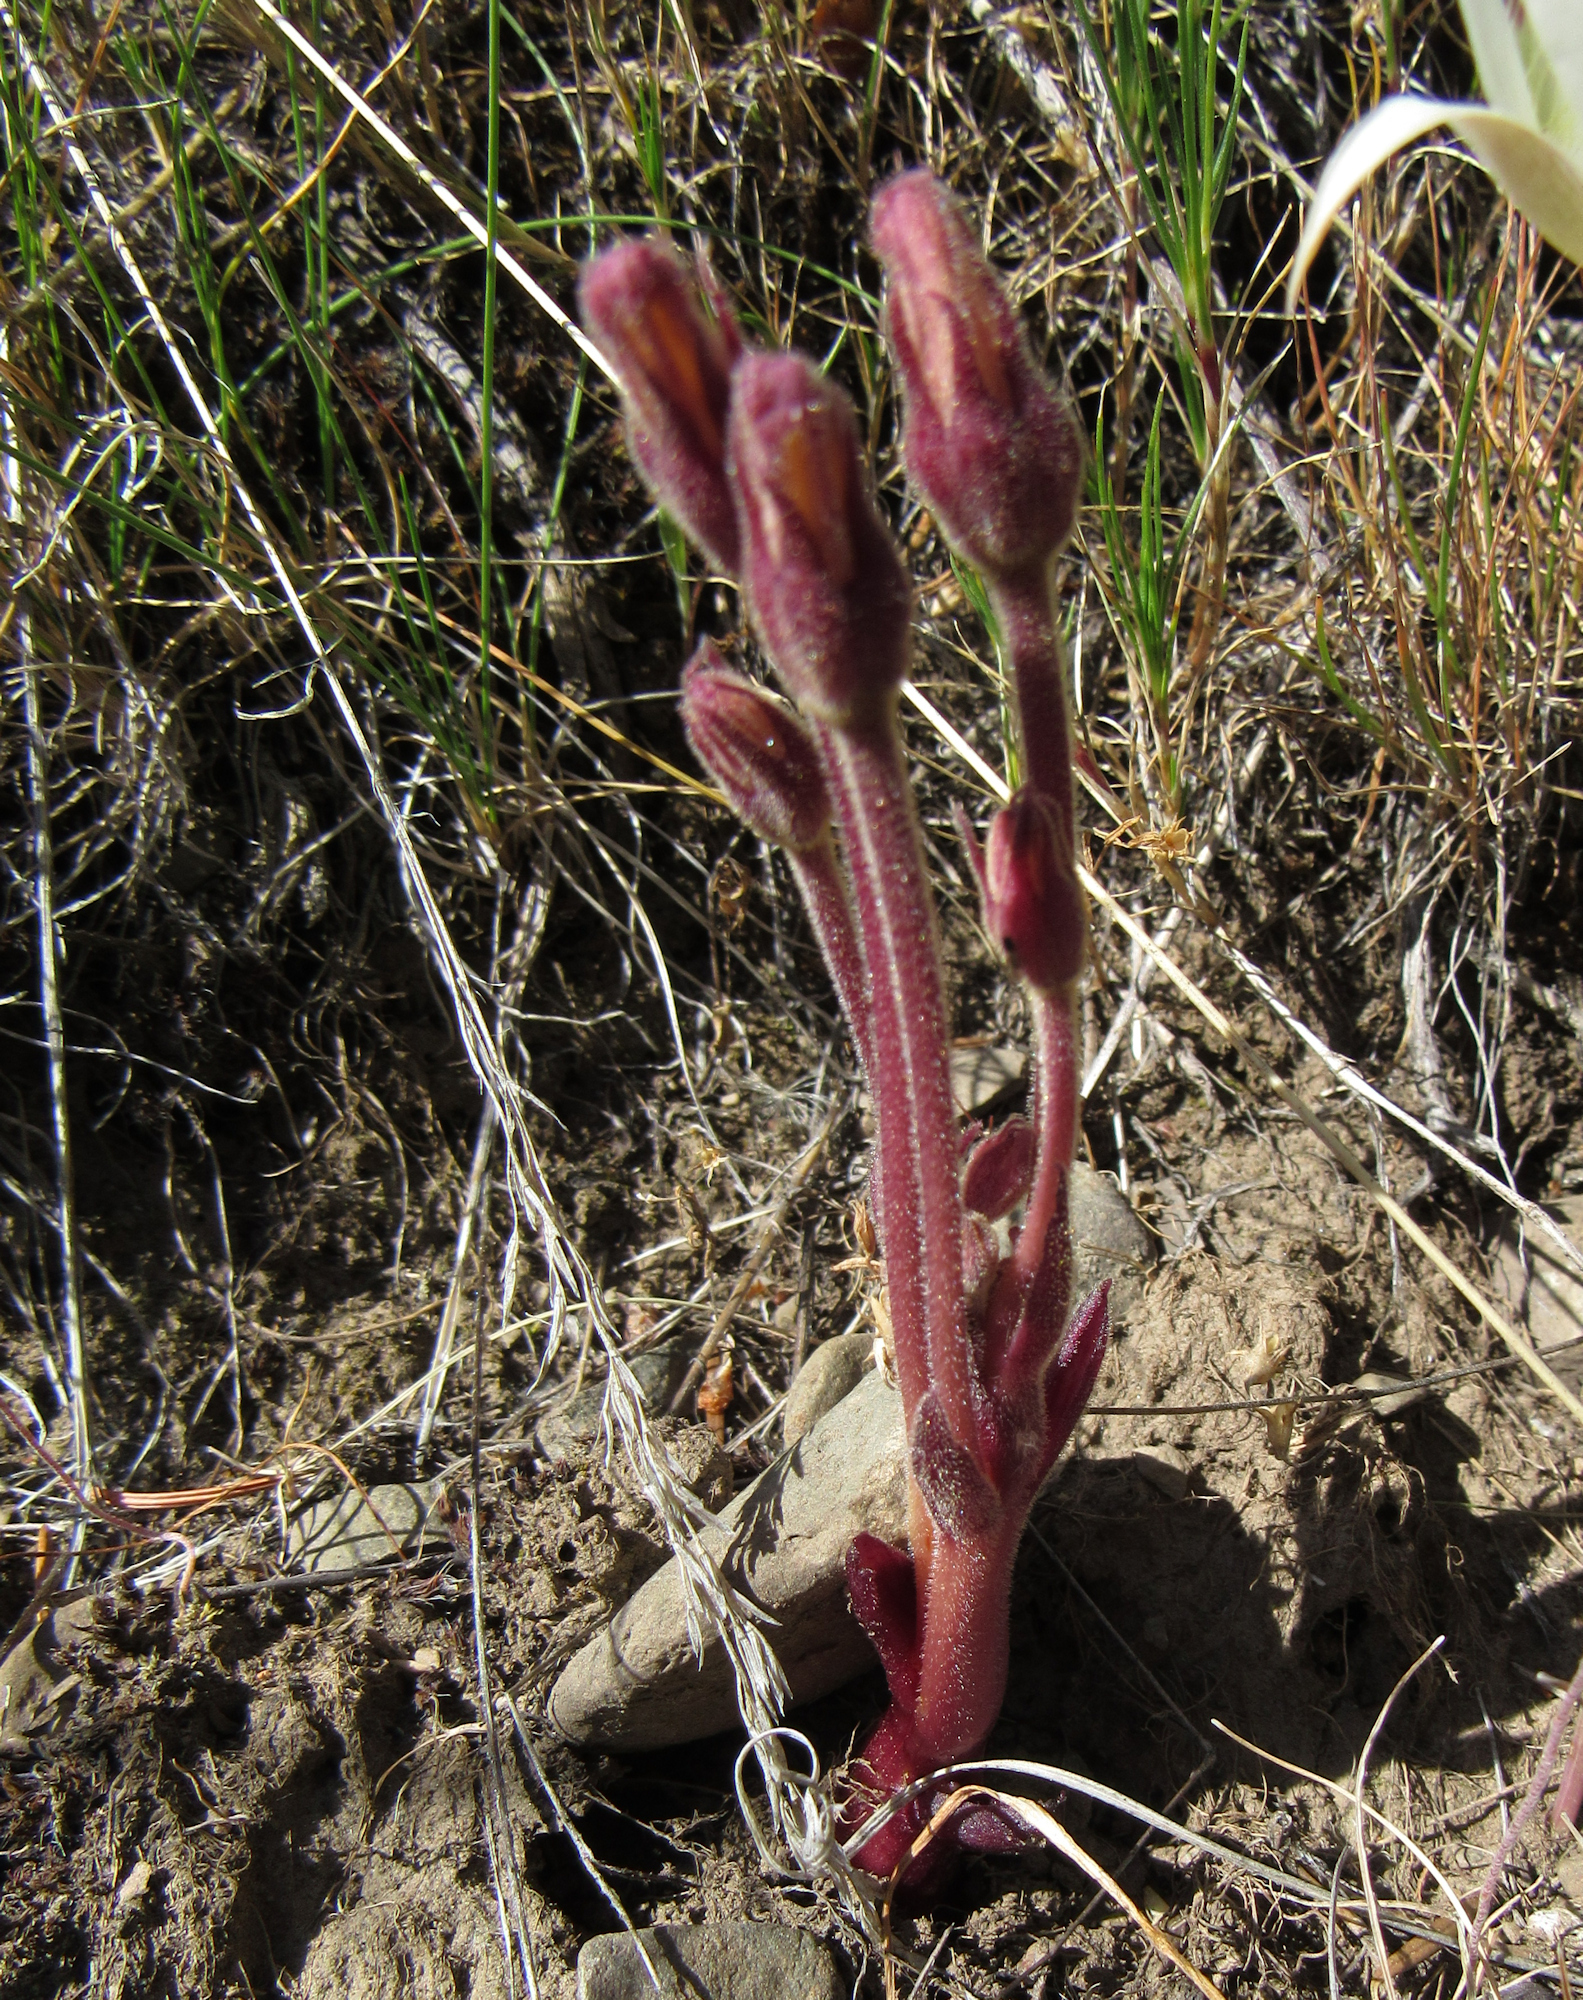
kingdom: Plantae
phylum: Tracheophyta
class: Magnoliopsida
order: Lamiales
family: Orobanchaceae
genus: Aphyllon
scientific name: Aphyllon fasciculatum
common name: Clustered broomrape
